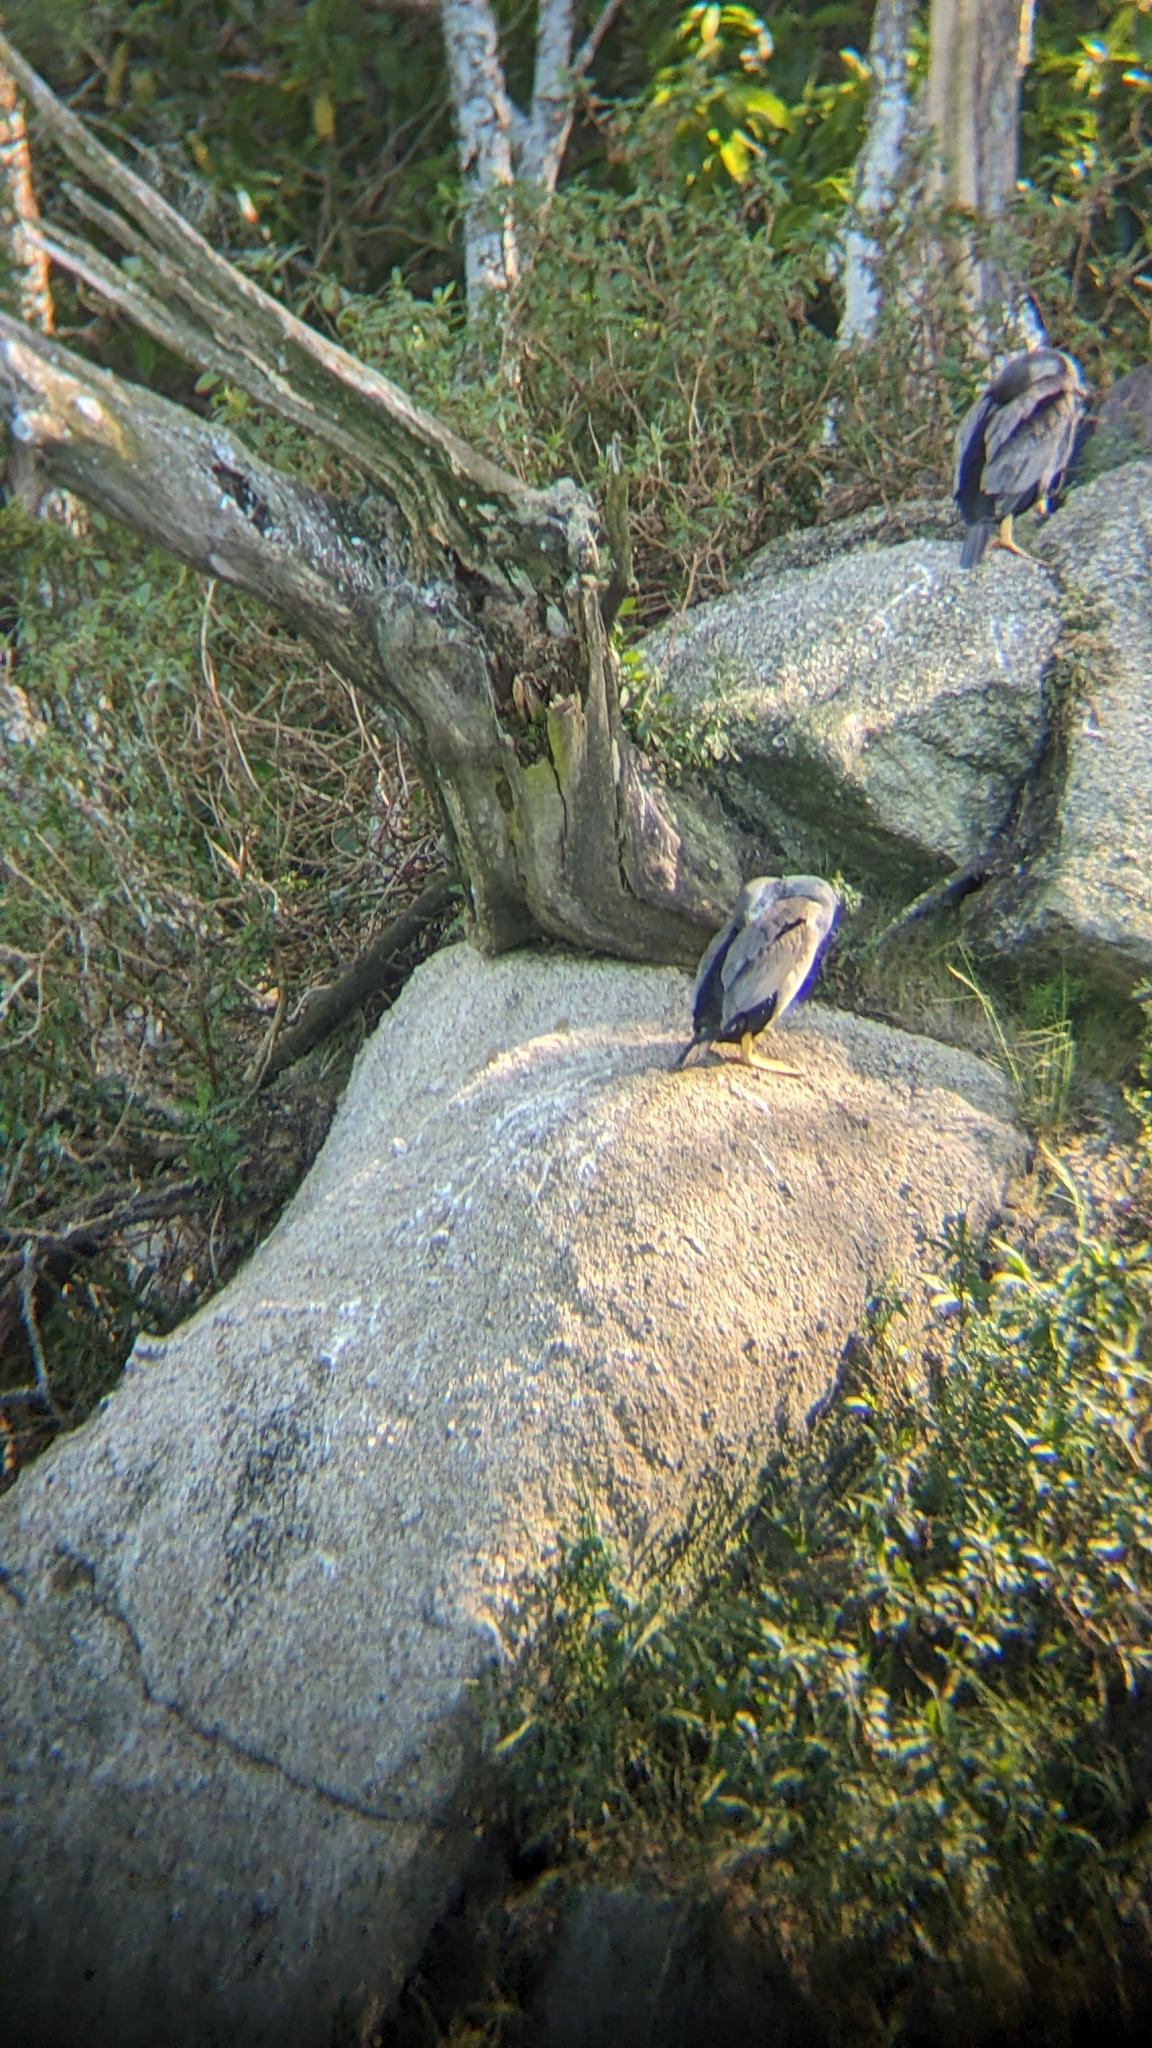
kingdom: Animalia
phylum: Chordata
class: Aves
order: Suliformes
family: Phalacrocoracidae
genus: Phalacrocorax
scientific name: Phalacrocorax punctatus
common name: Spotted shag
